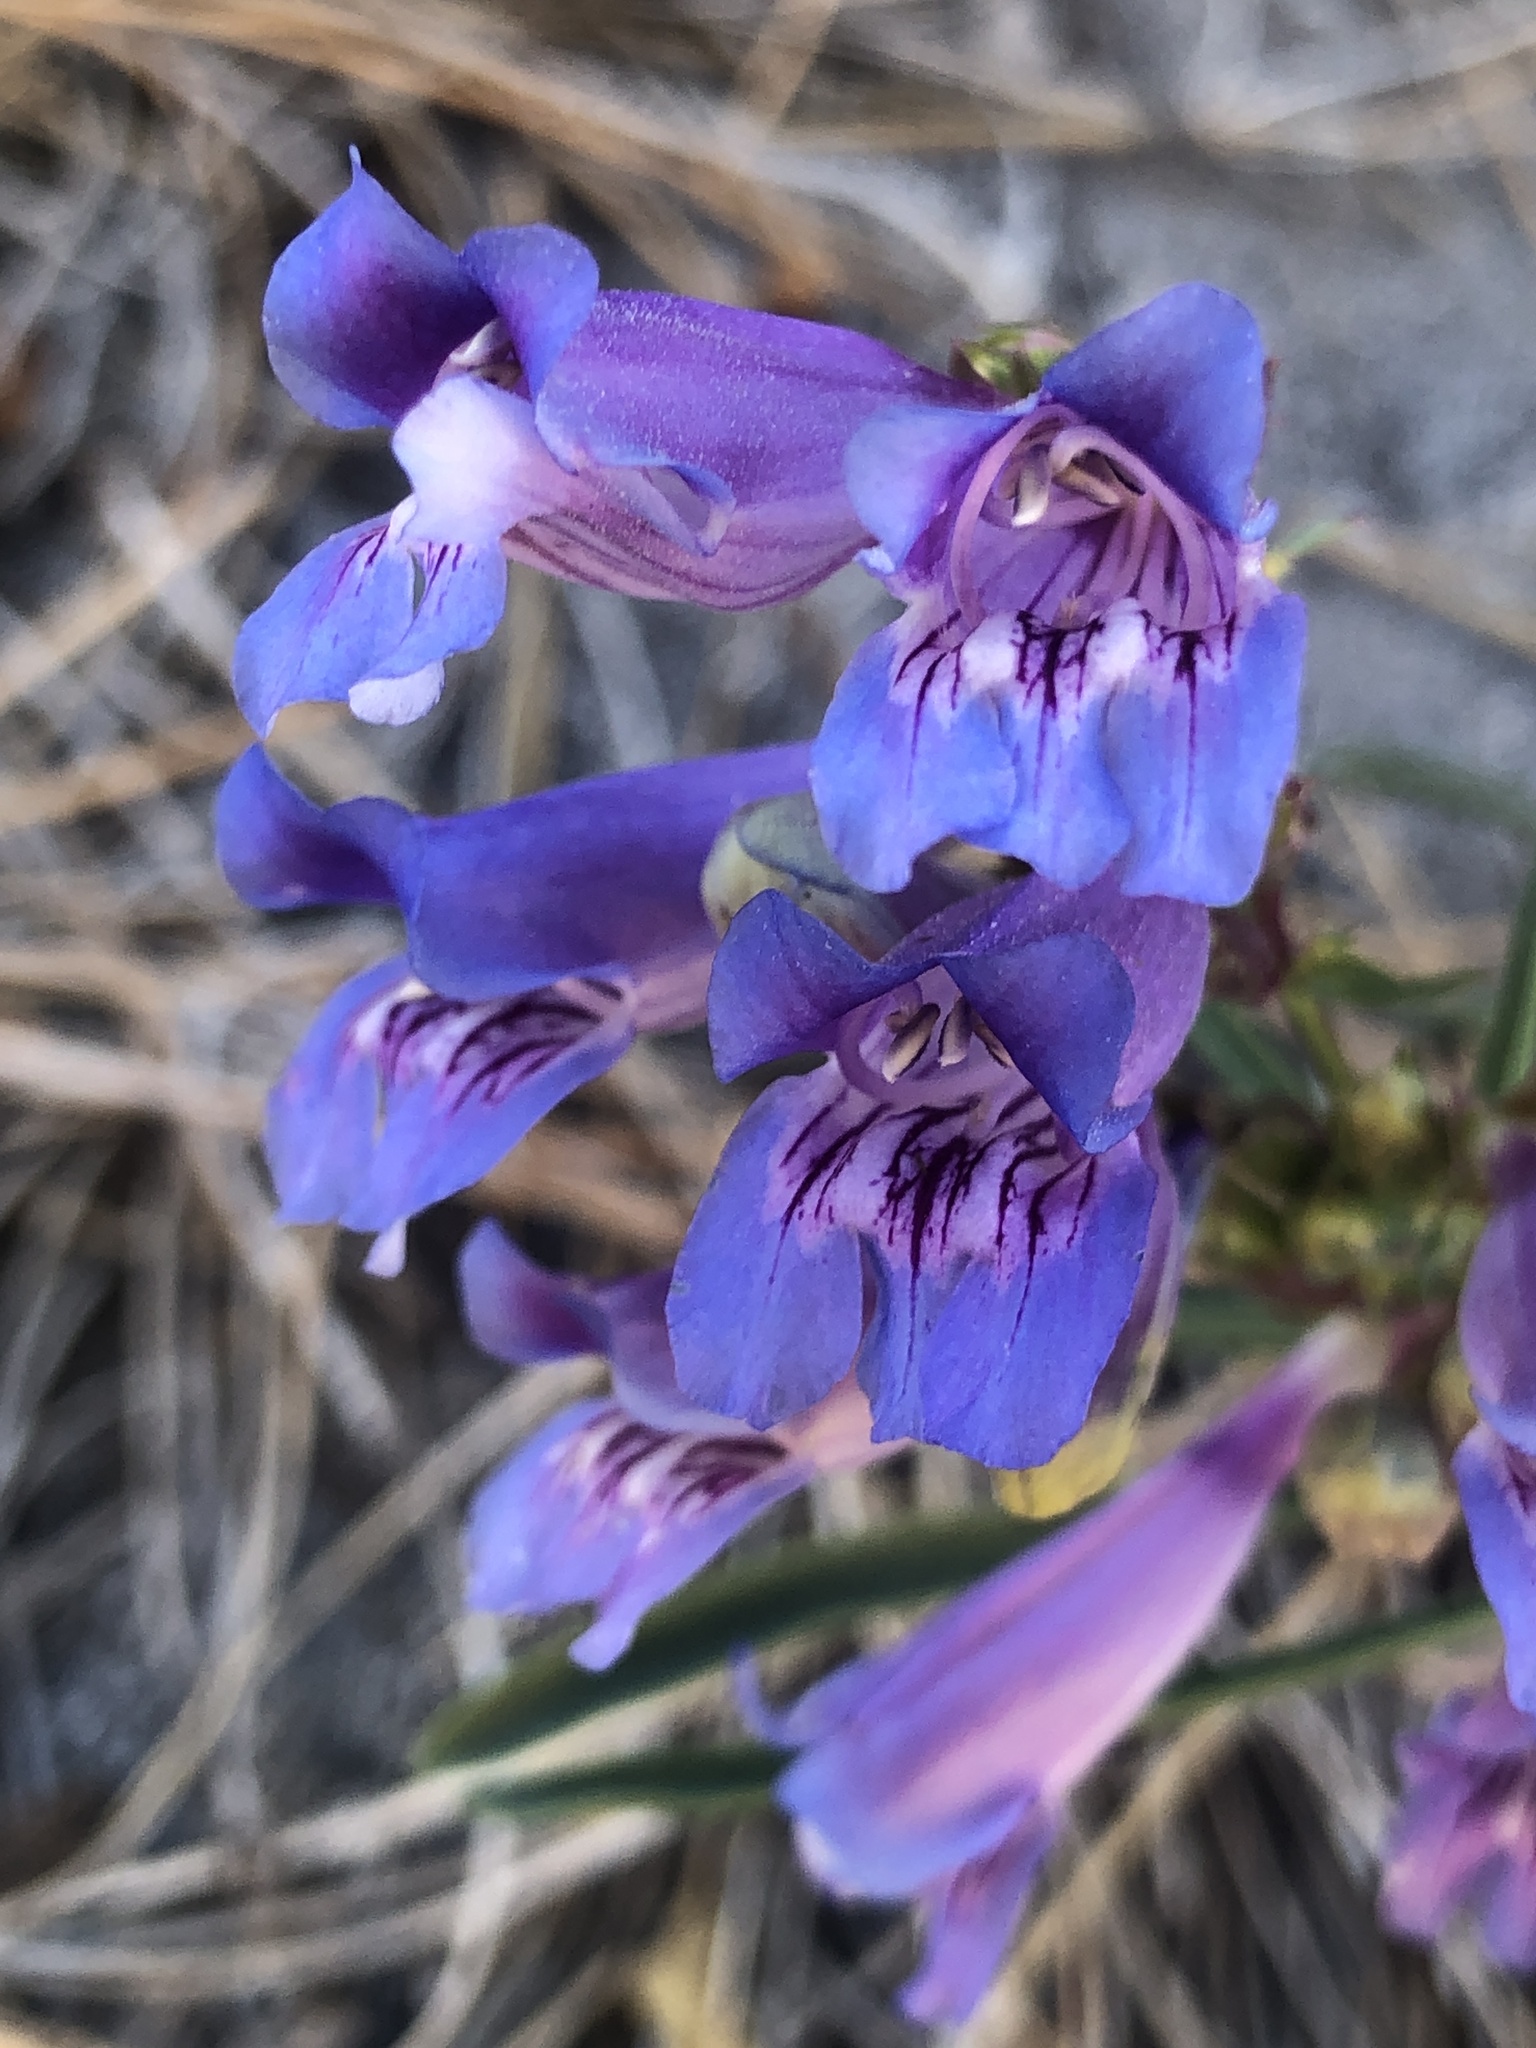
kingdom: Plantae
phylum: Tracheophyta
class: Magnoliopsida
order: Lamiales
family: Plantaginaceae
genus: Penstemon
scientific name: Penstemon speciosus
